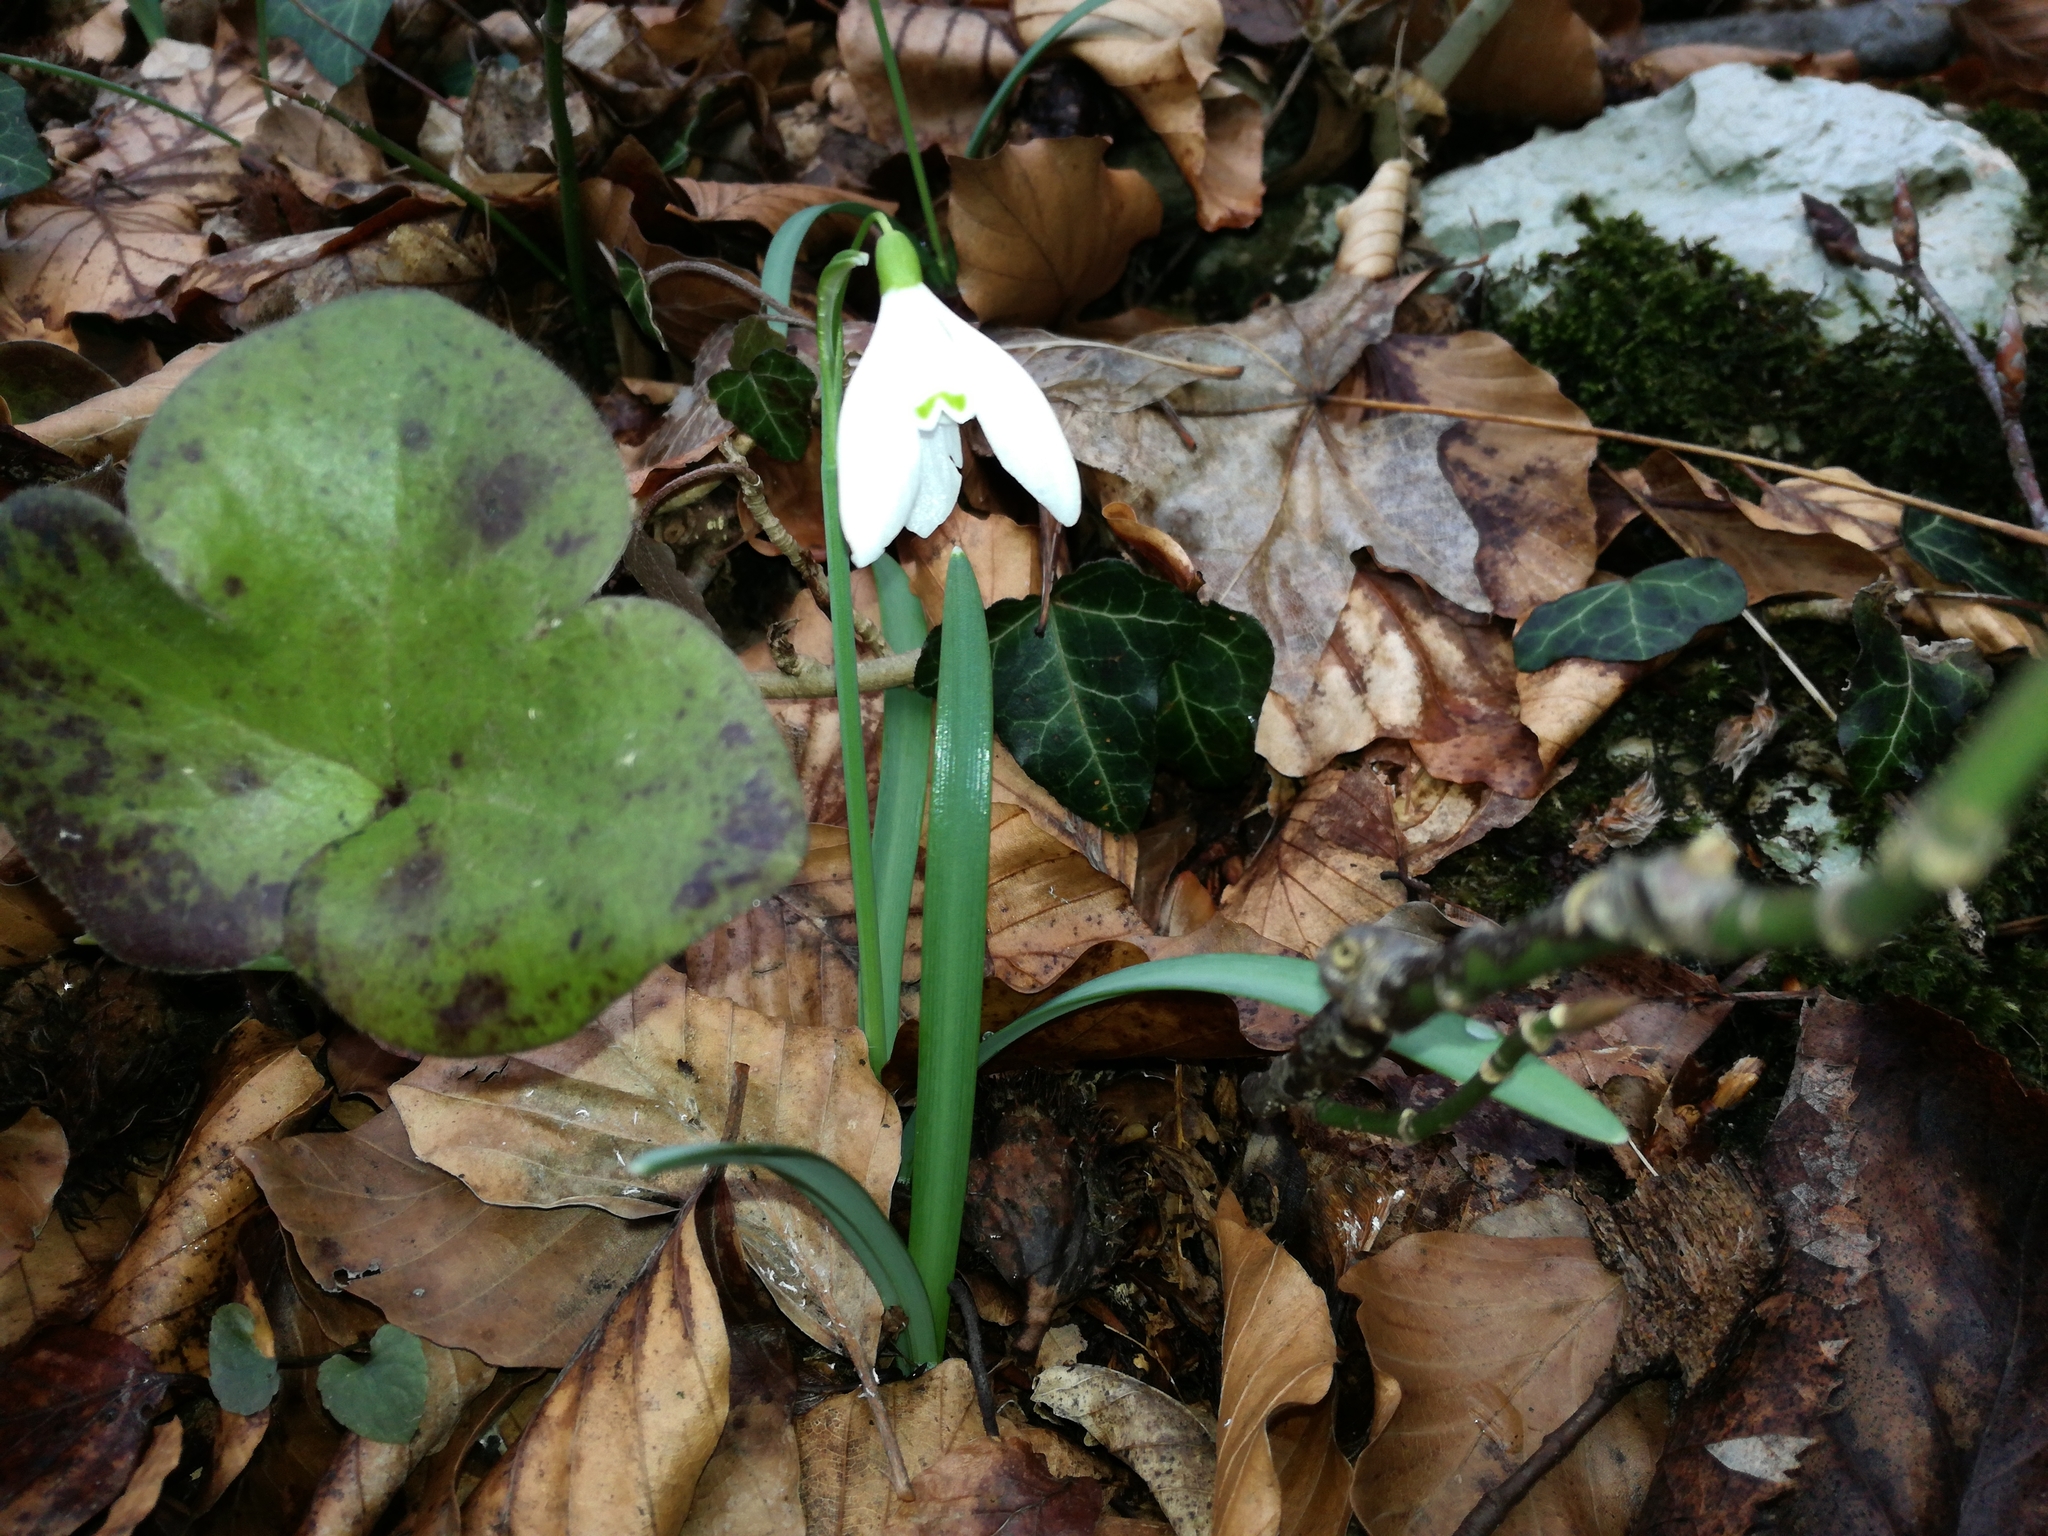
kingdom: Plantae
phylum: Tracheophyta
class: Liliopsida
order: Asparagales
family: Amaryllidaceae
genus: Galanthus
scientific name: Galanthus nivalis
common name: Snowdrop
